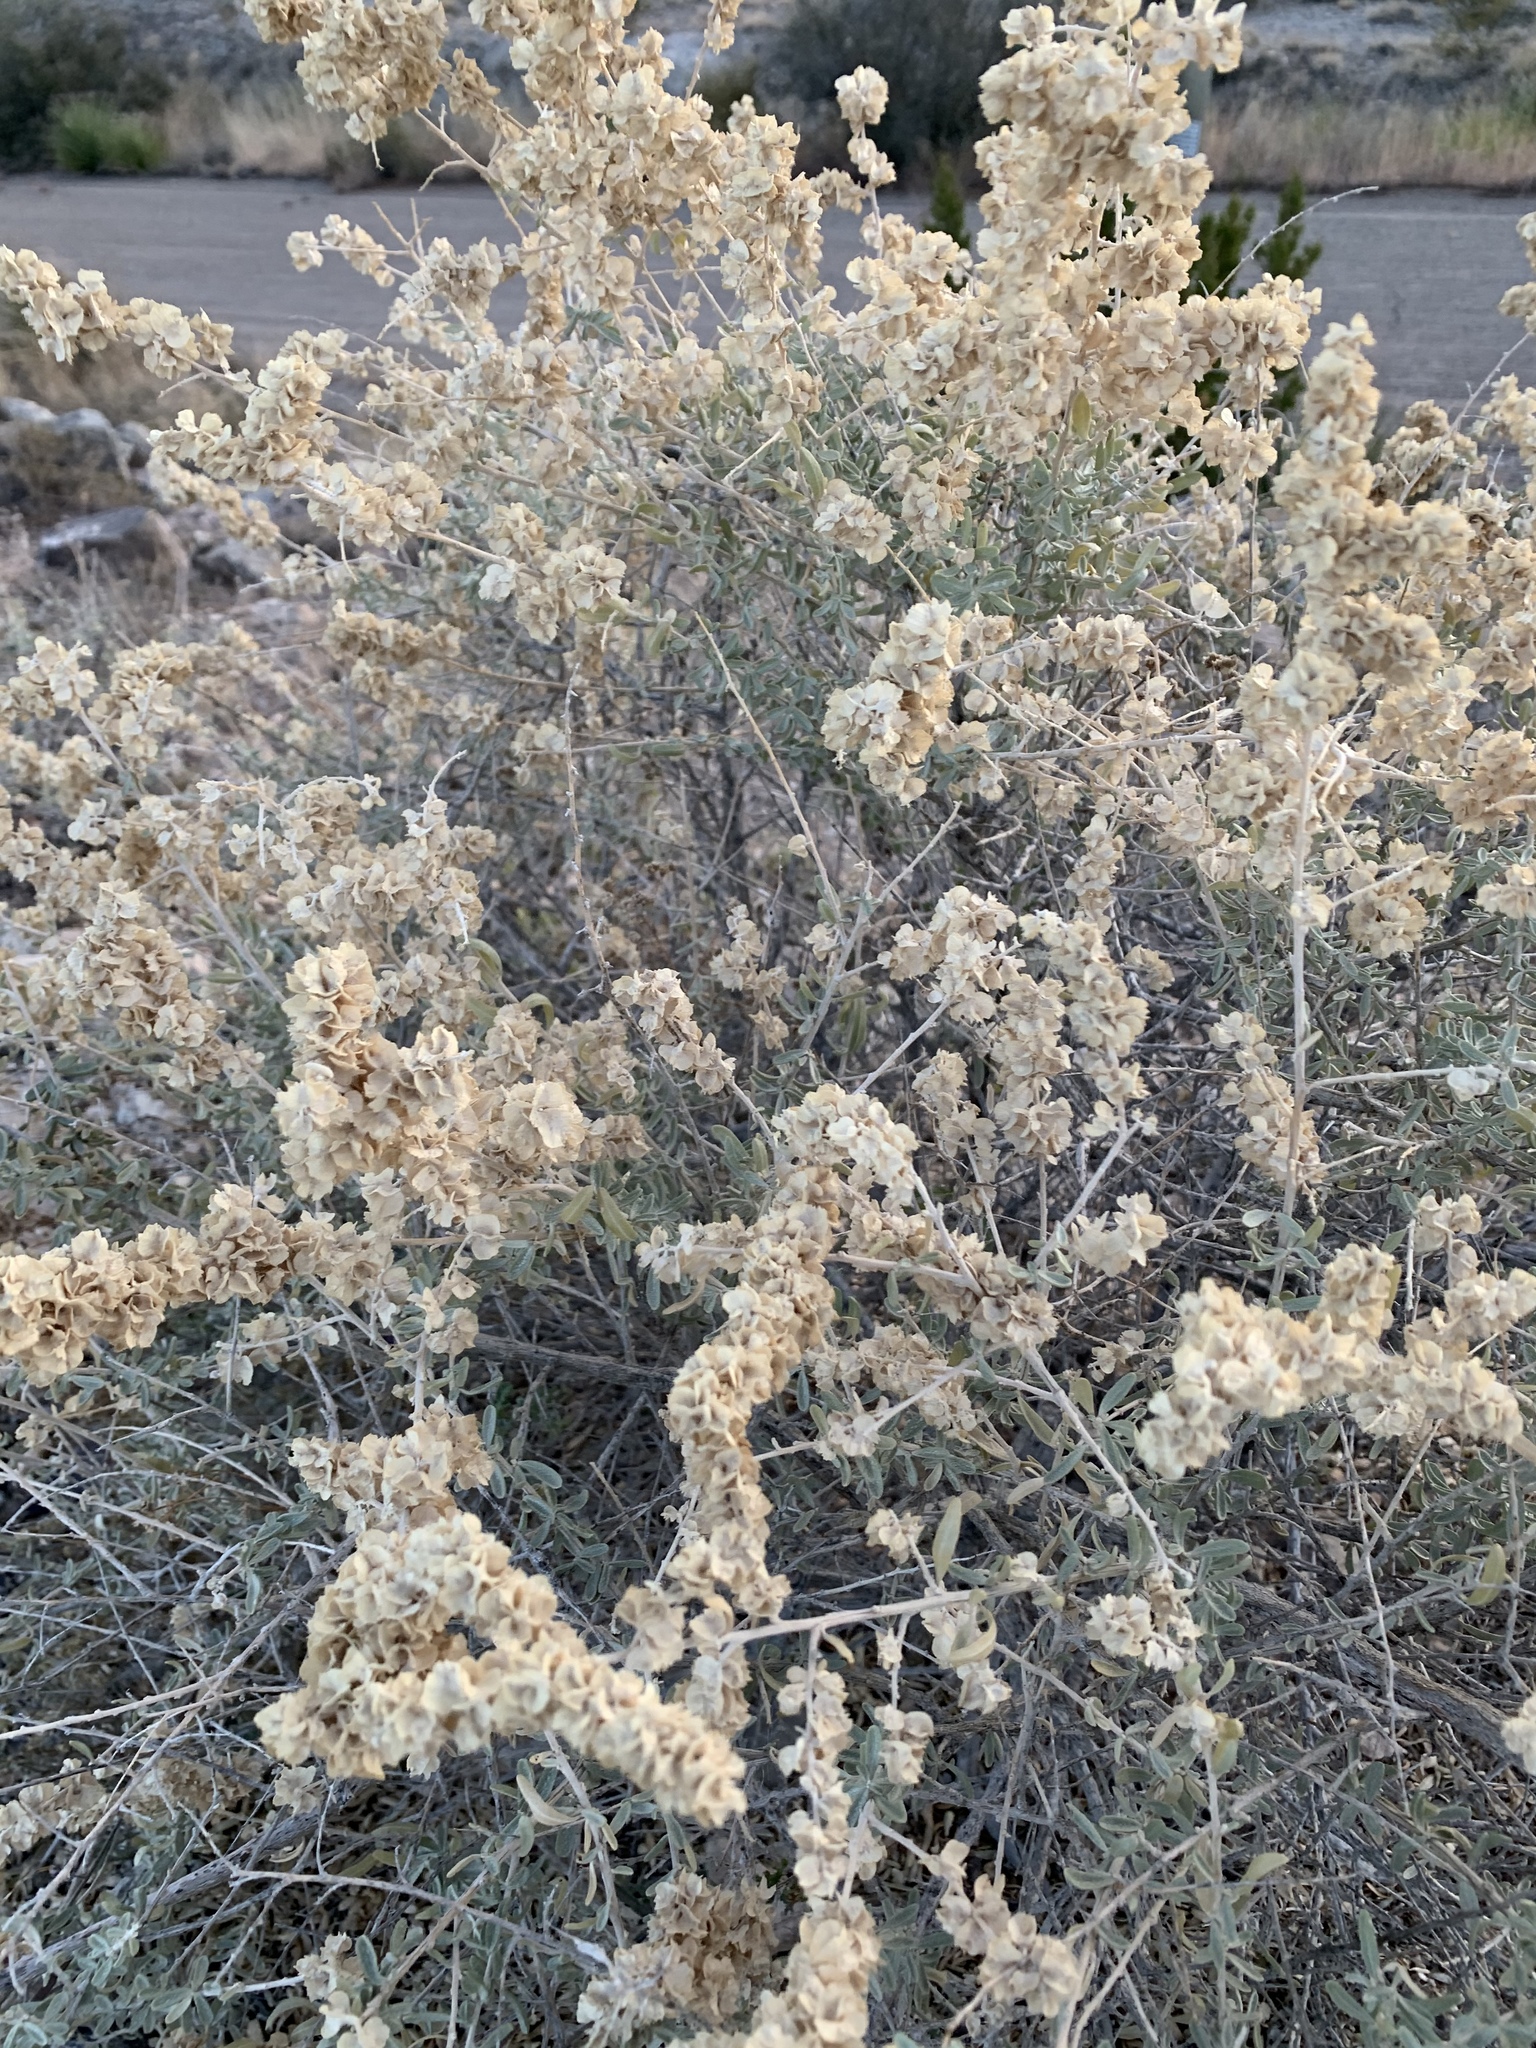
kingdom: Plantae
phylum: Tracheophyta
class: Magnoliopsida
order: Caryophyllales
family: Amaranthaceae
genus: Atriplex
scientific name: Atriplex canescens
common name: Four-wing saltbush
